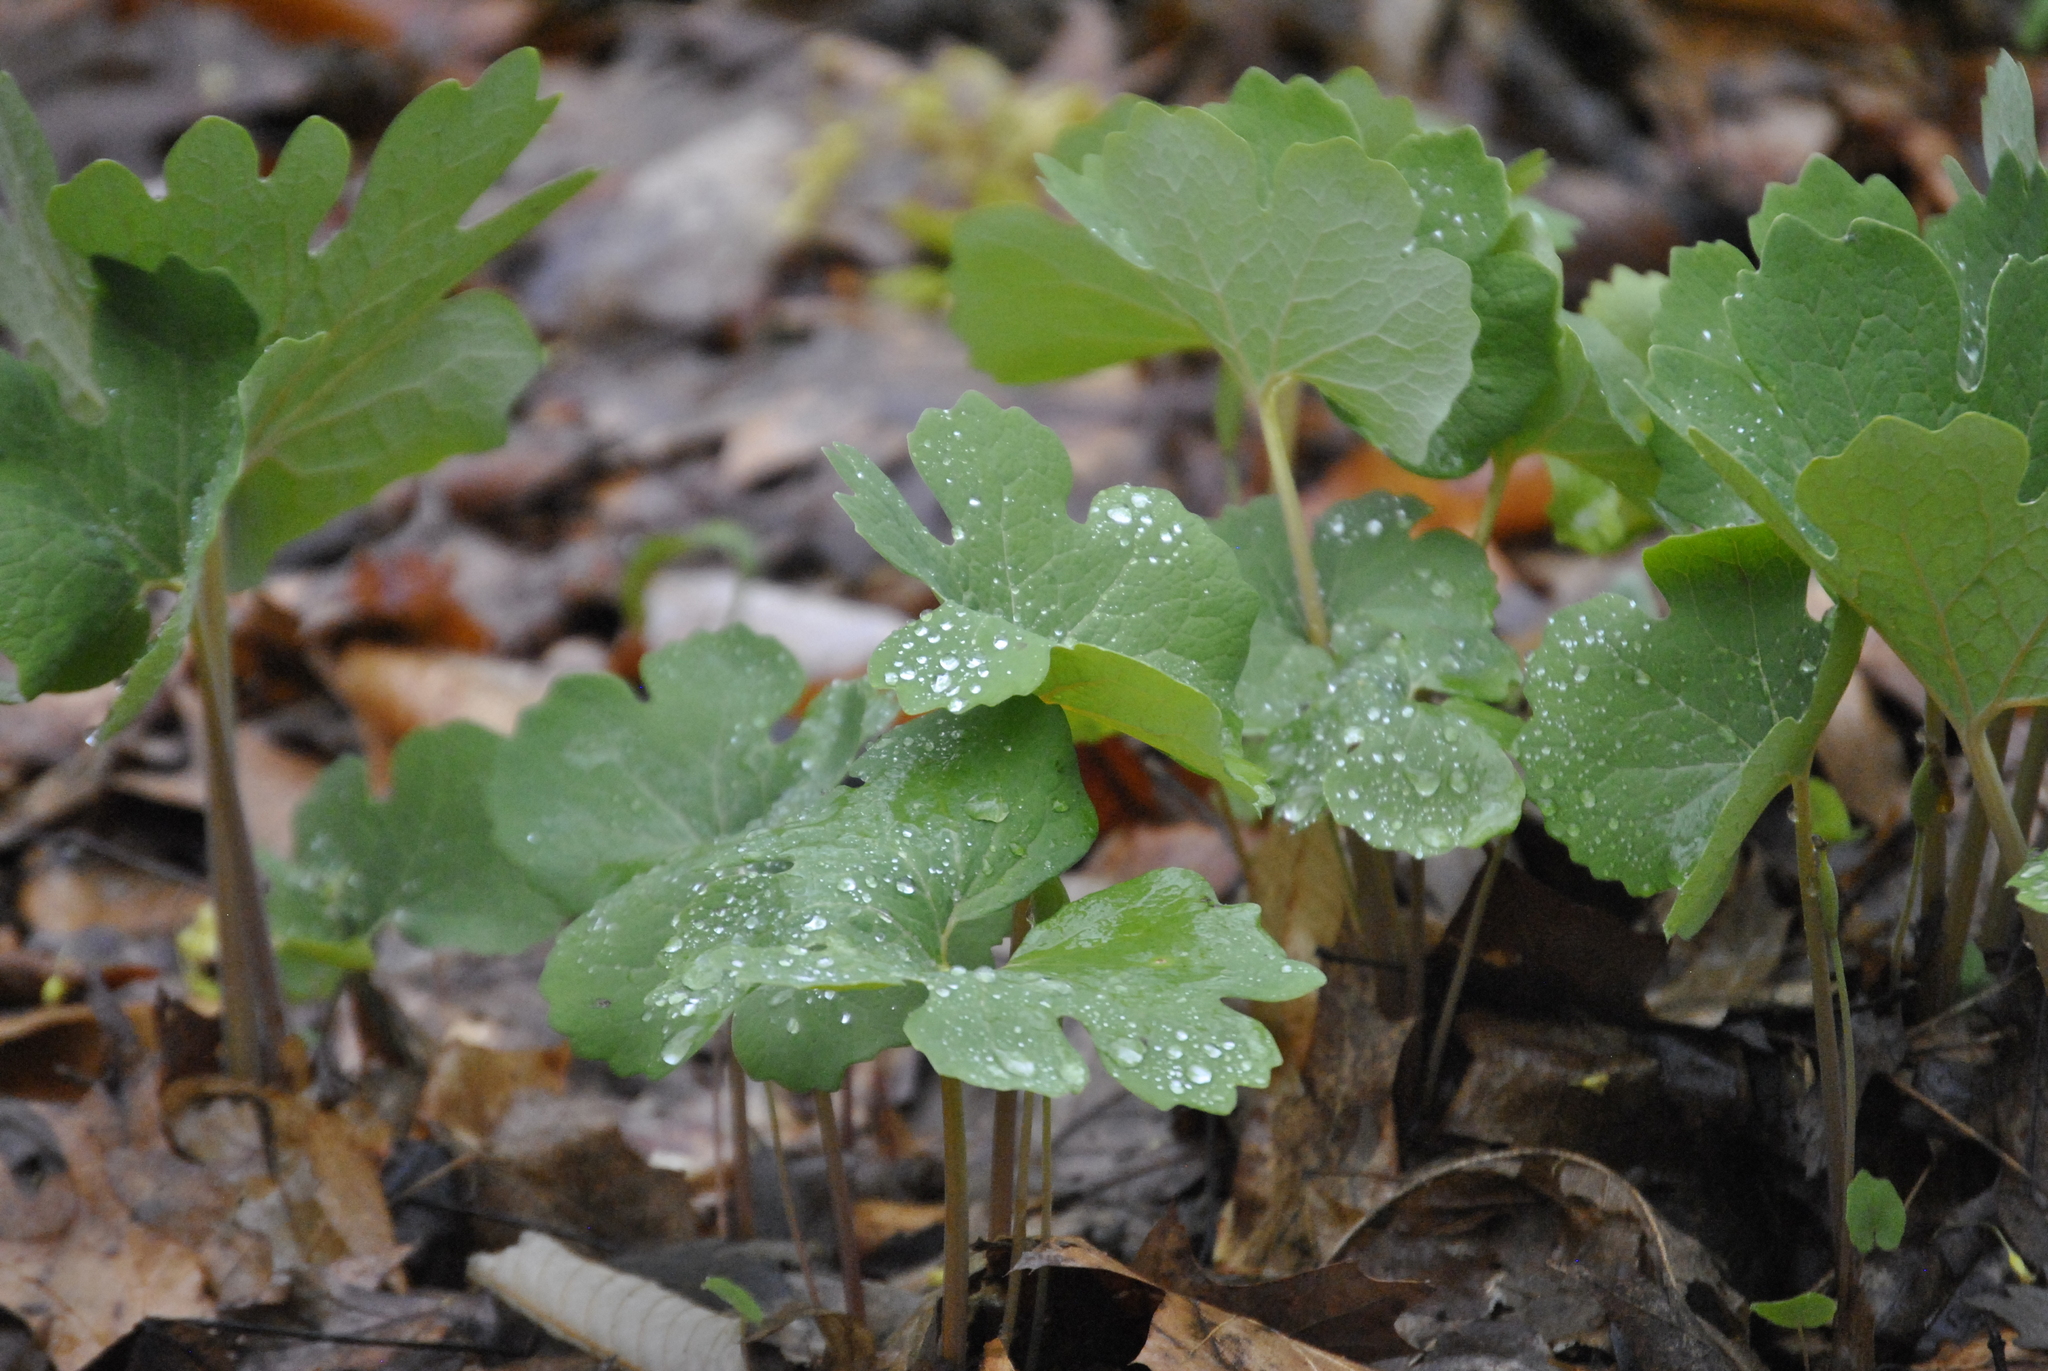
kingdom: Plantae
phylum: Tracheophyta
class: Magnoliopsida
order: Ranunculales
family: Papaveraceae
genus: Sanguinaria
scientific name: Sanguinaria canadensis
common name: Bloodroot
